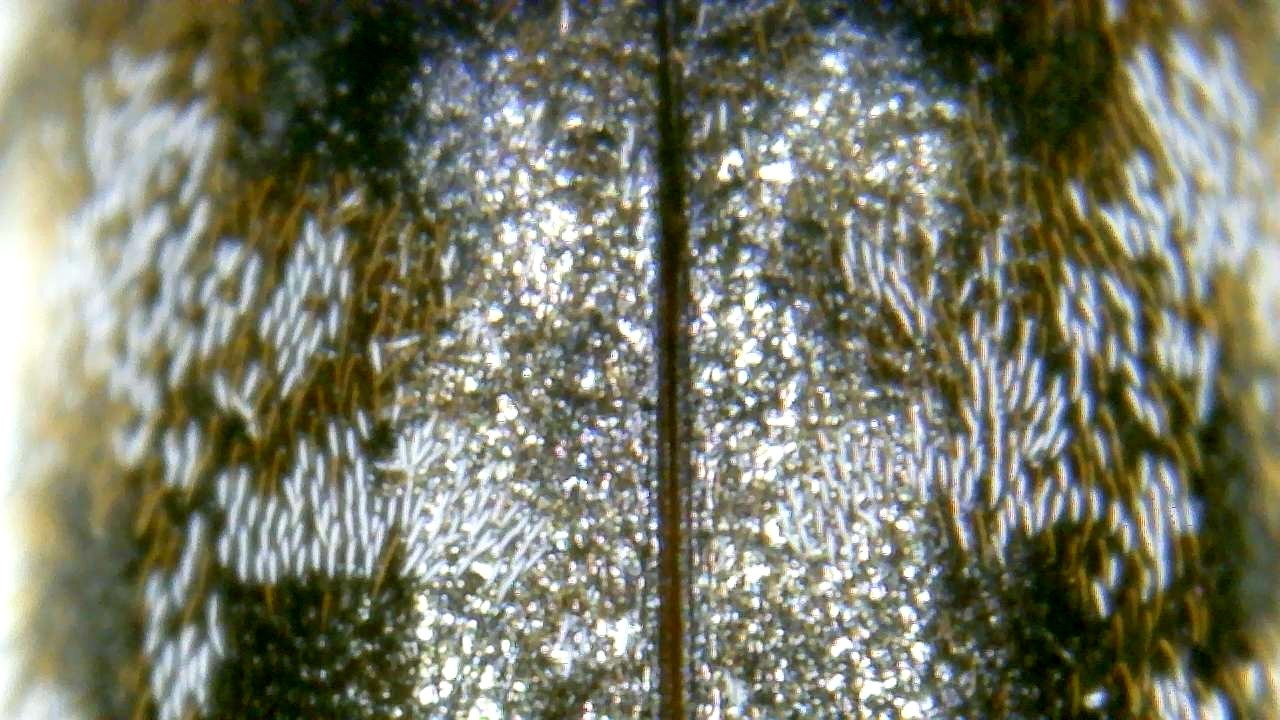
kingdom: Animalia
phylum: Arthropoda
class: Insecta
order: Coleoptera
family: Dermestidae
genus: Trogoderma
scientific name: Trogoderma sternale
